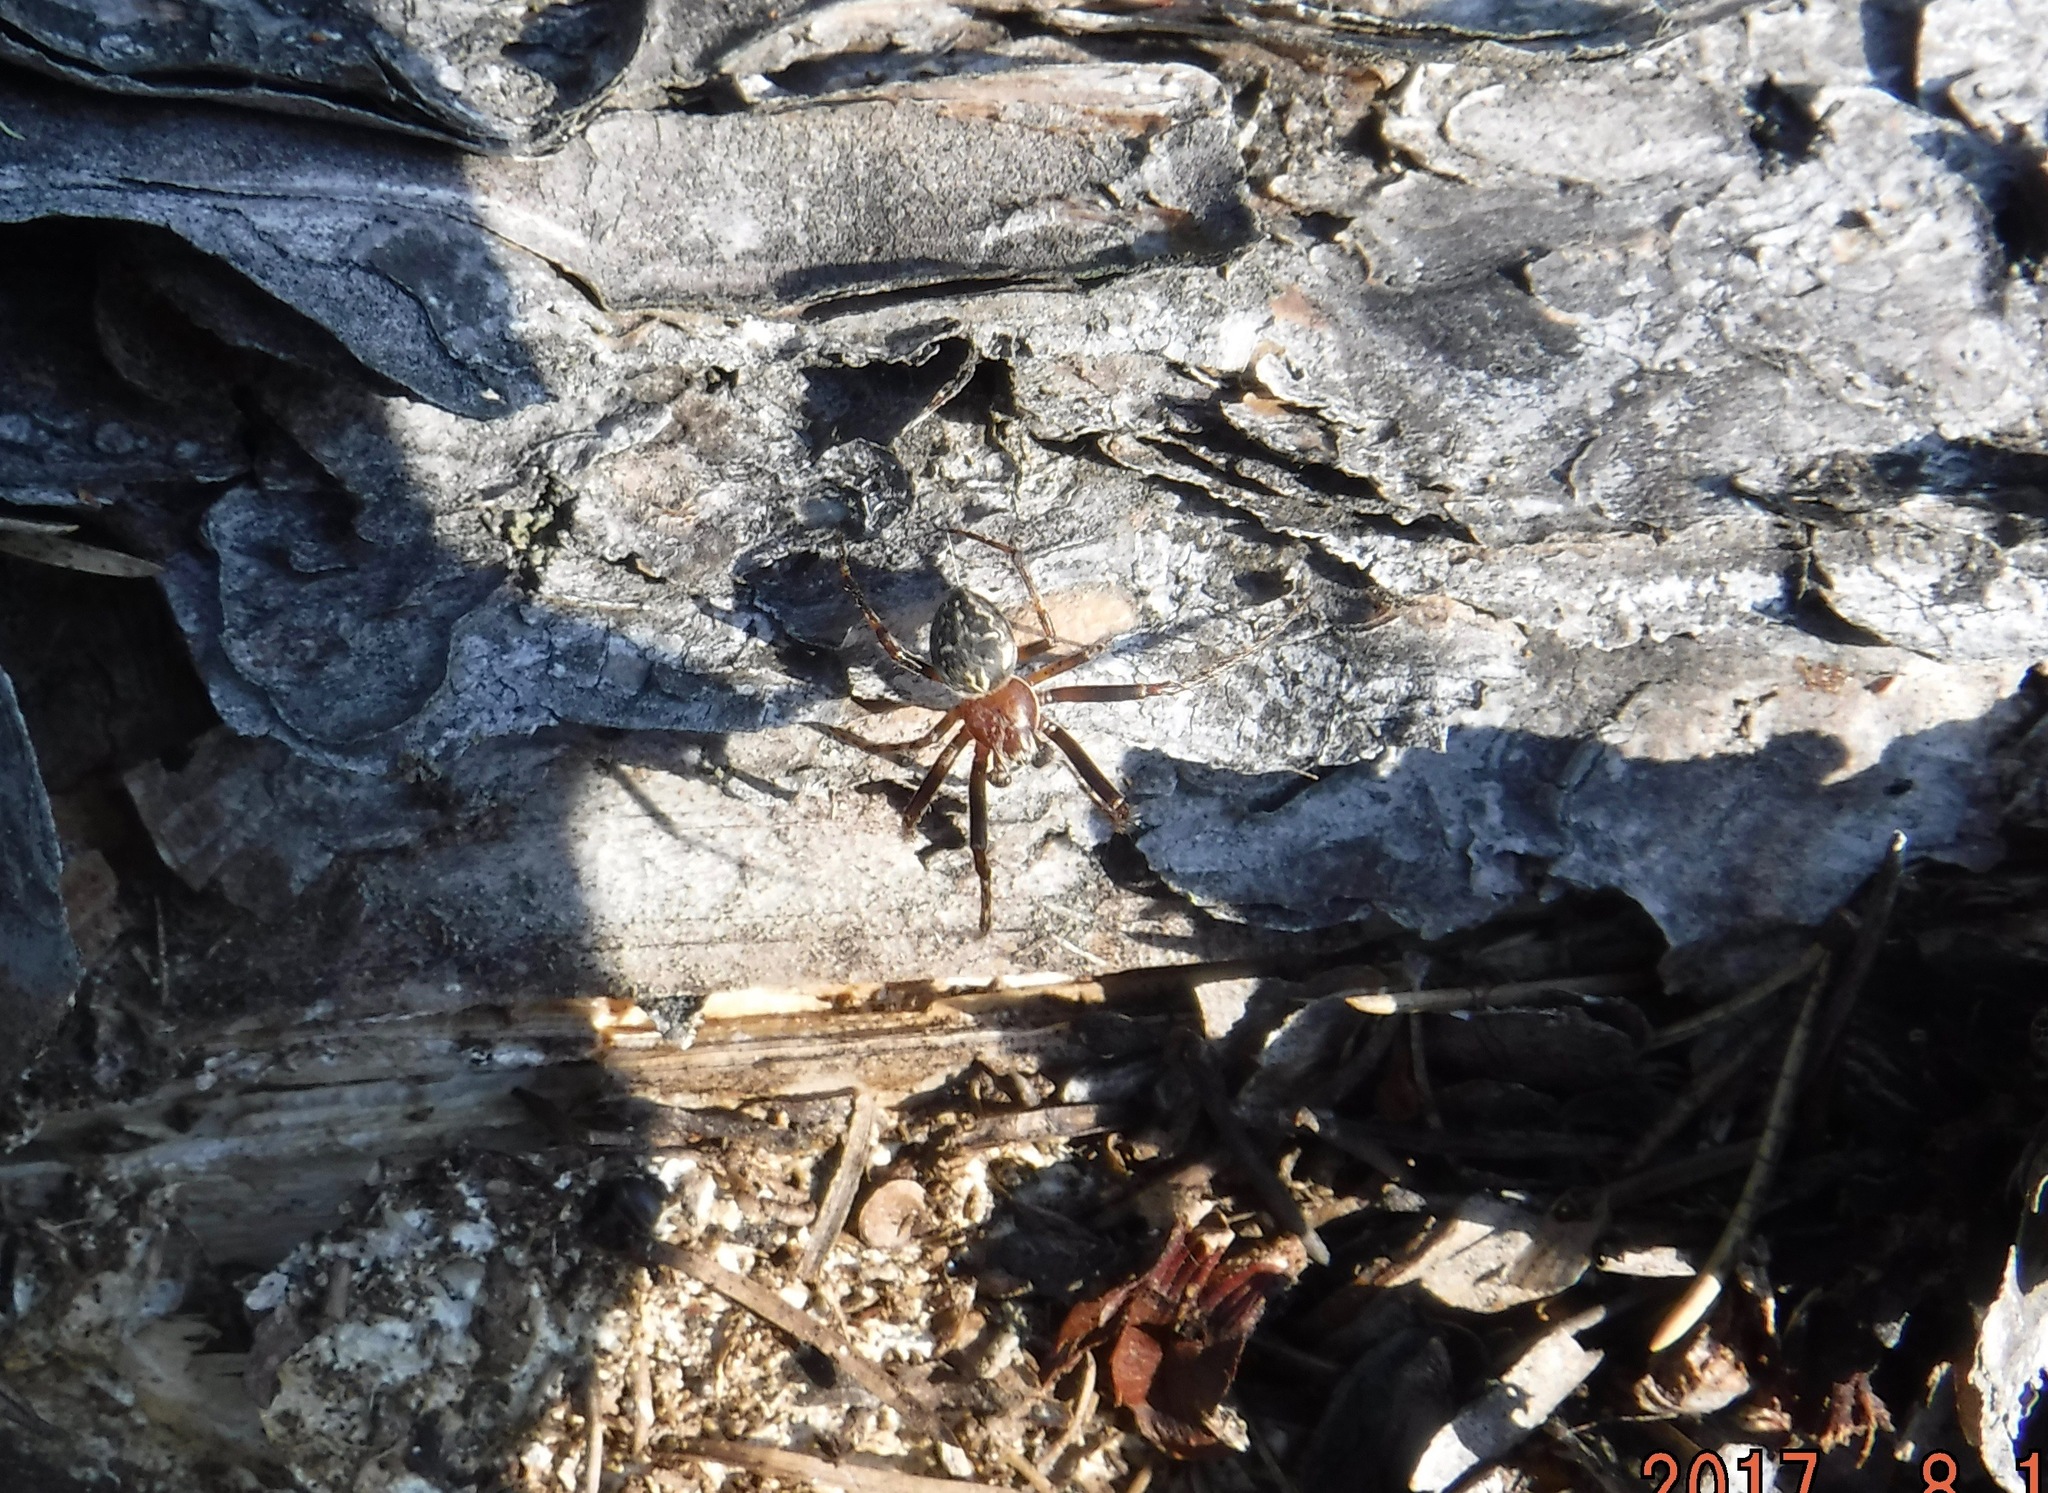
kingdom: Animalia
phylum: Arthropoda
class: Arachnida
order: Araneae
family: Araneidae
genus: Larinioides
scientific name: Larinioides patagiatus
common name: Ornamental orbweaver
